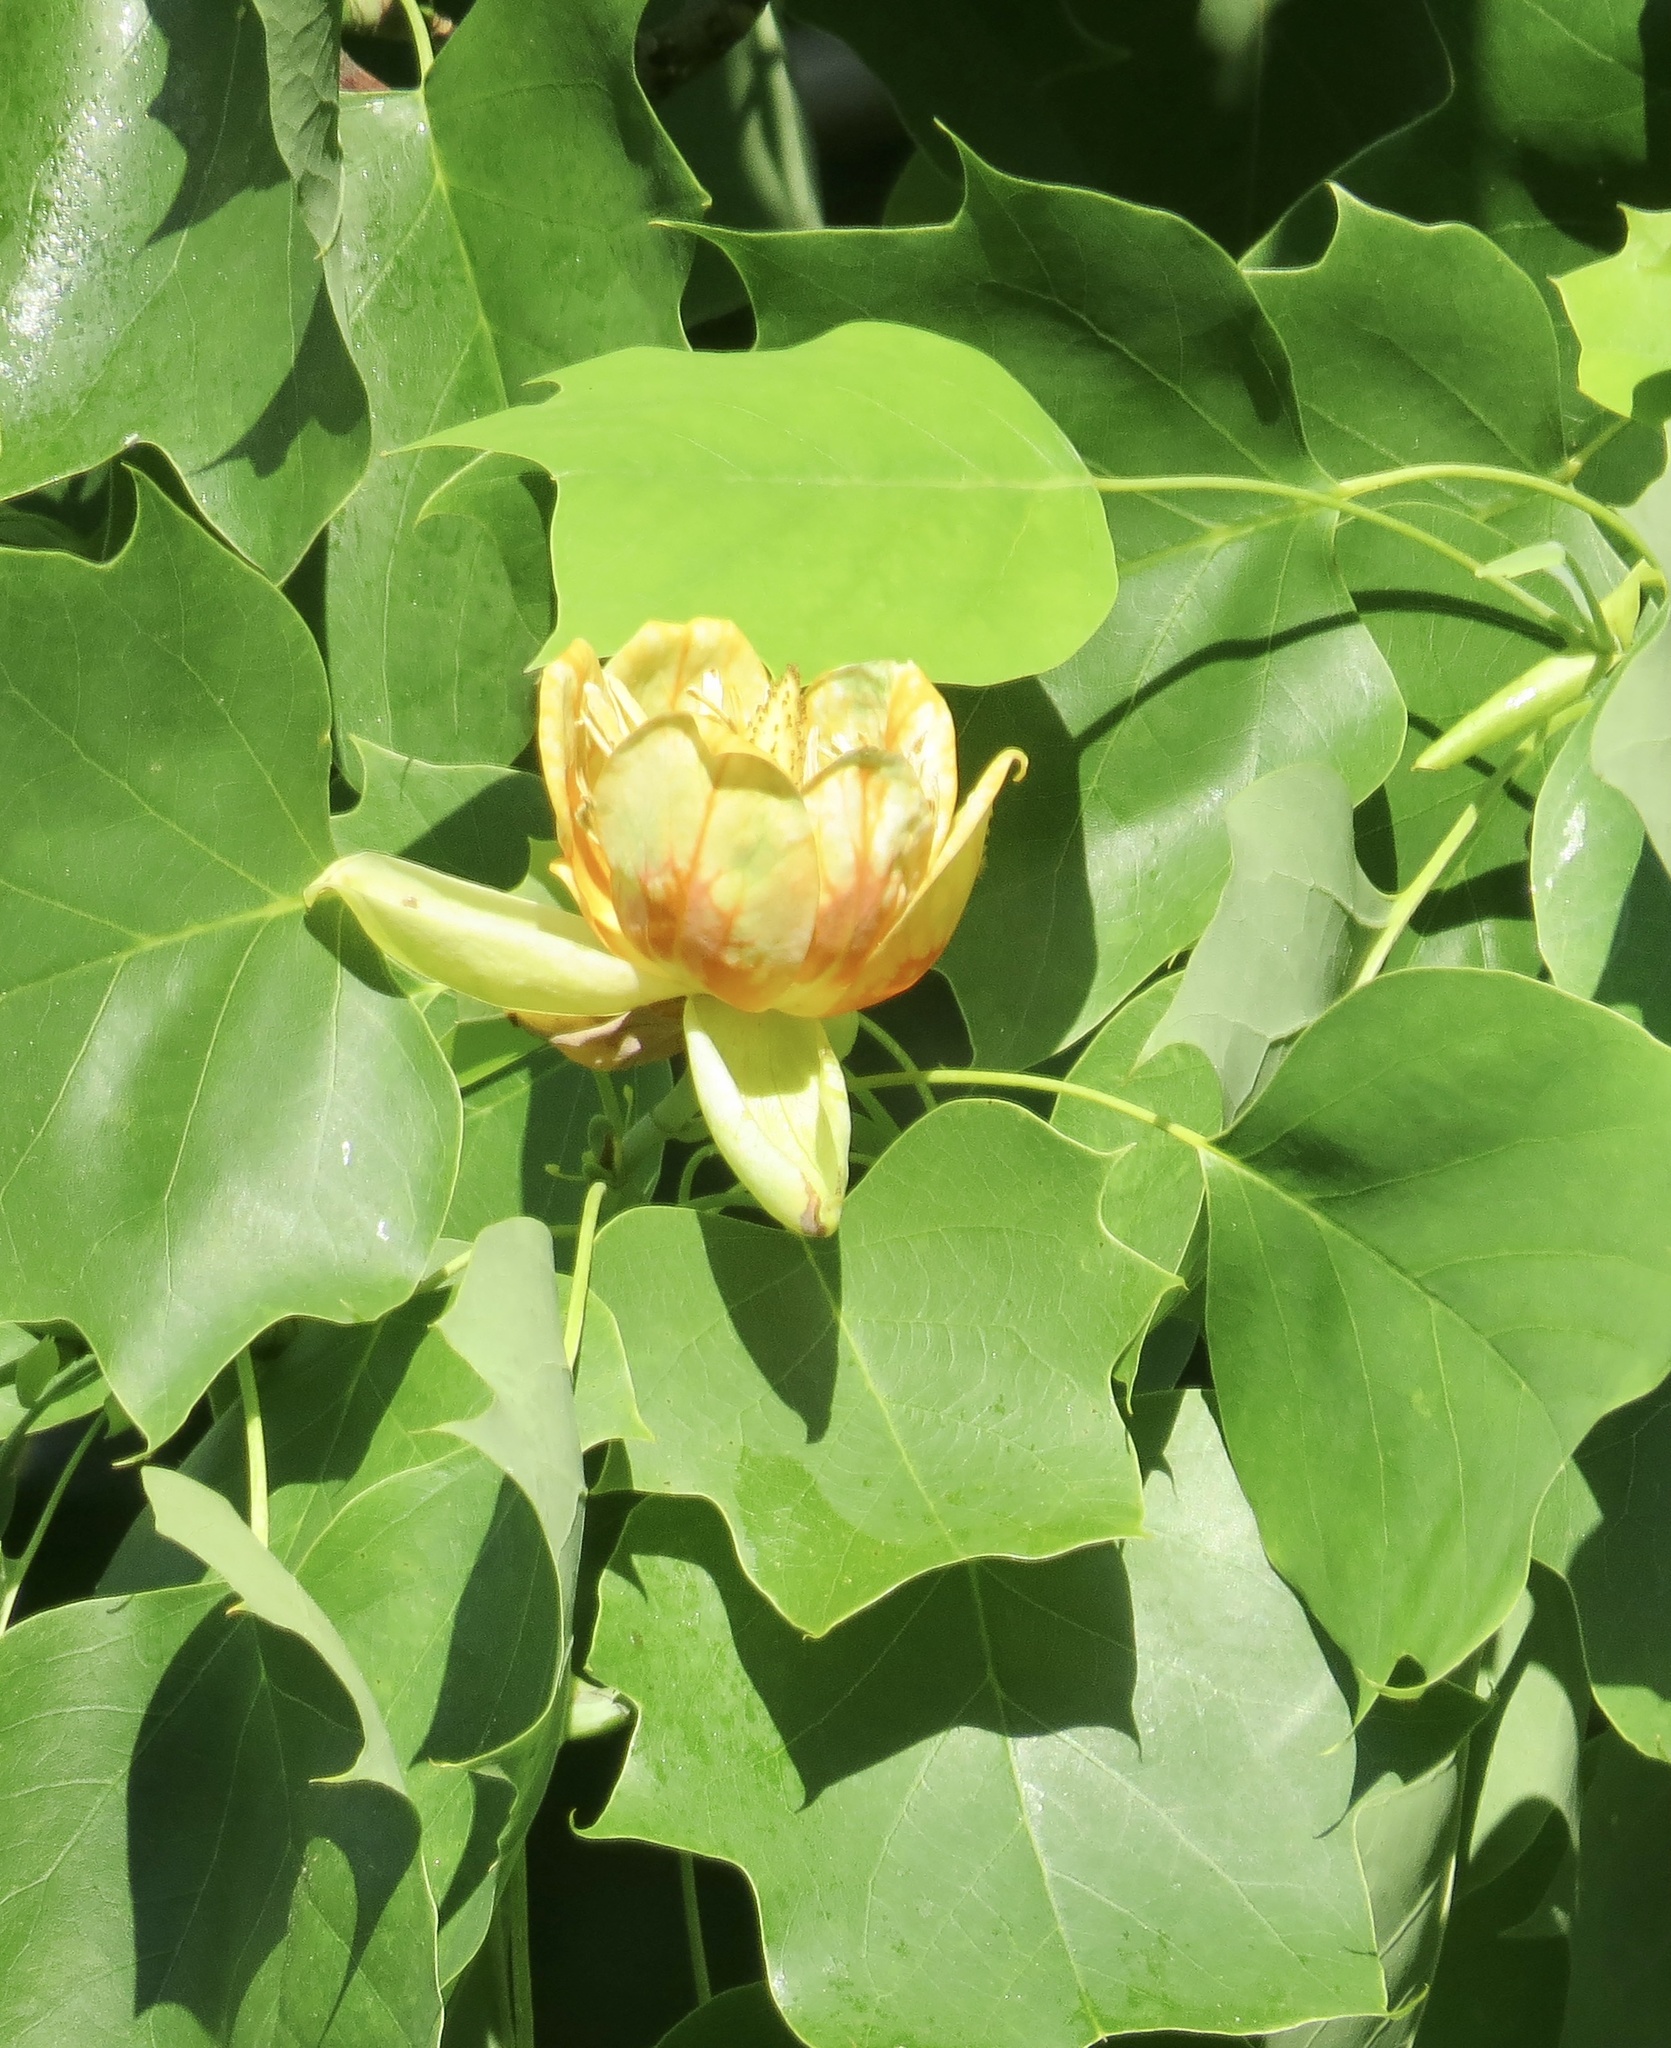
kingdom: Plantae
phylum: Tracheophyta
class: Magnoliopsida
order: Magnoliales
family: Magnoliaceae
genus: Liriodendron
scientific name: Liriodendron tulipifera
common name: Tulip tree
